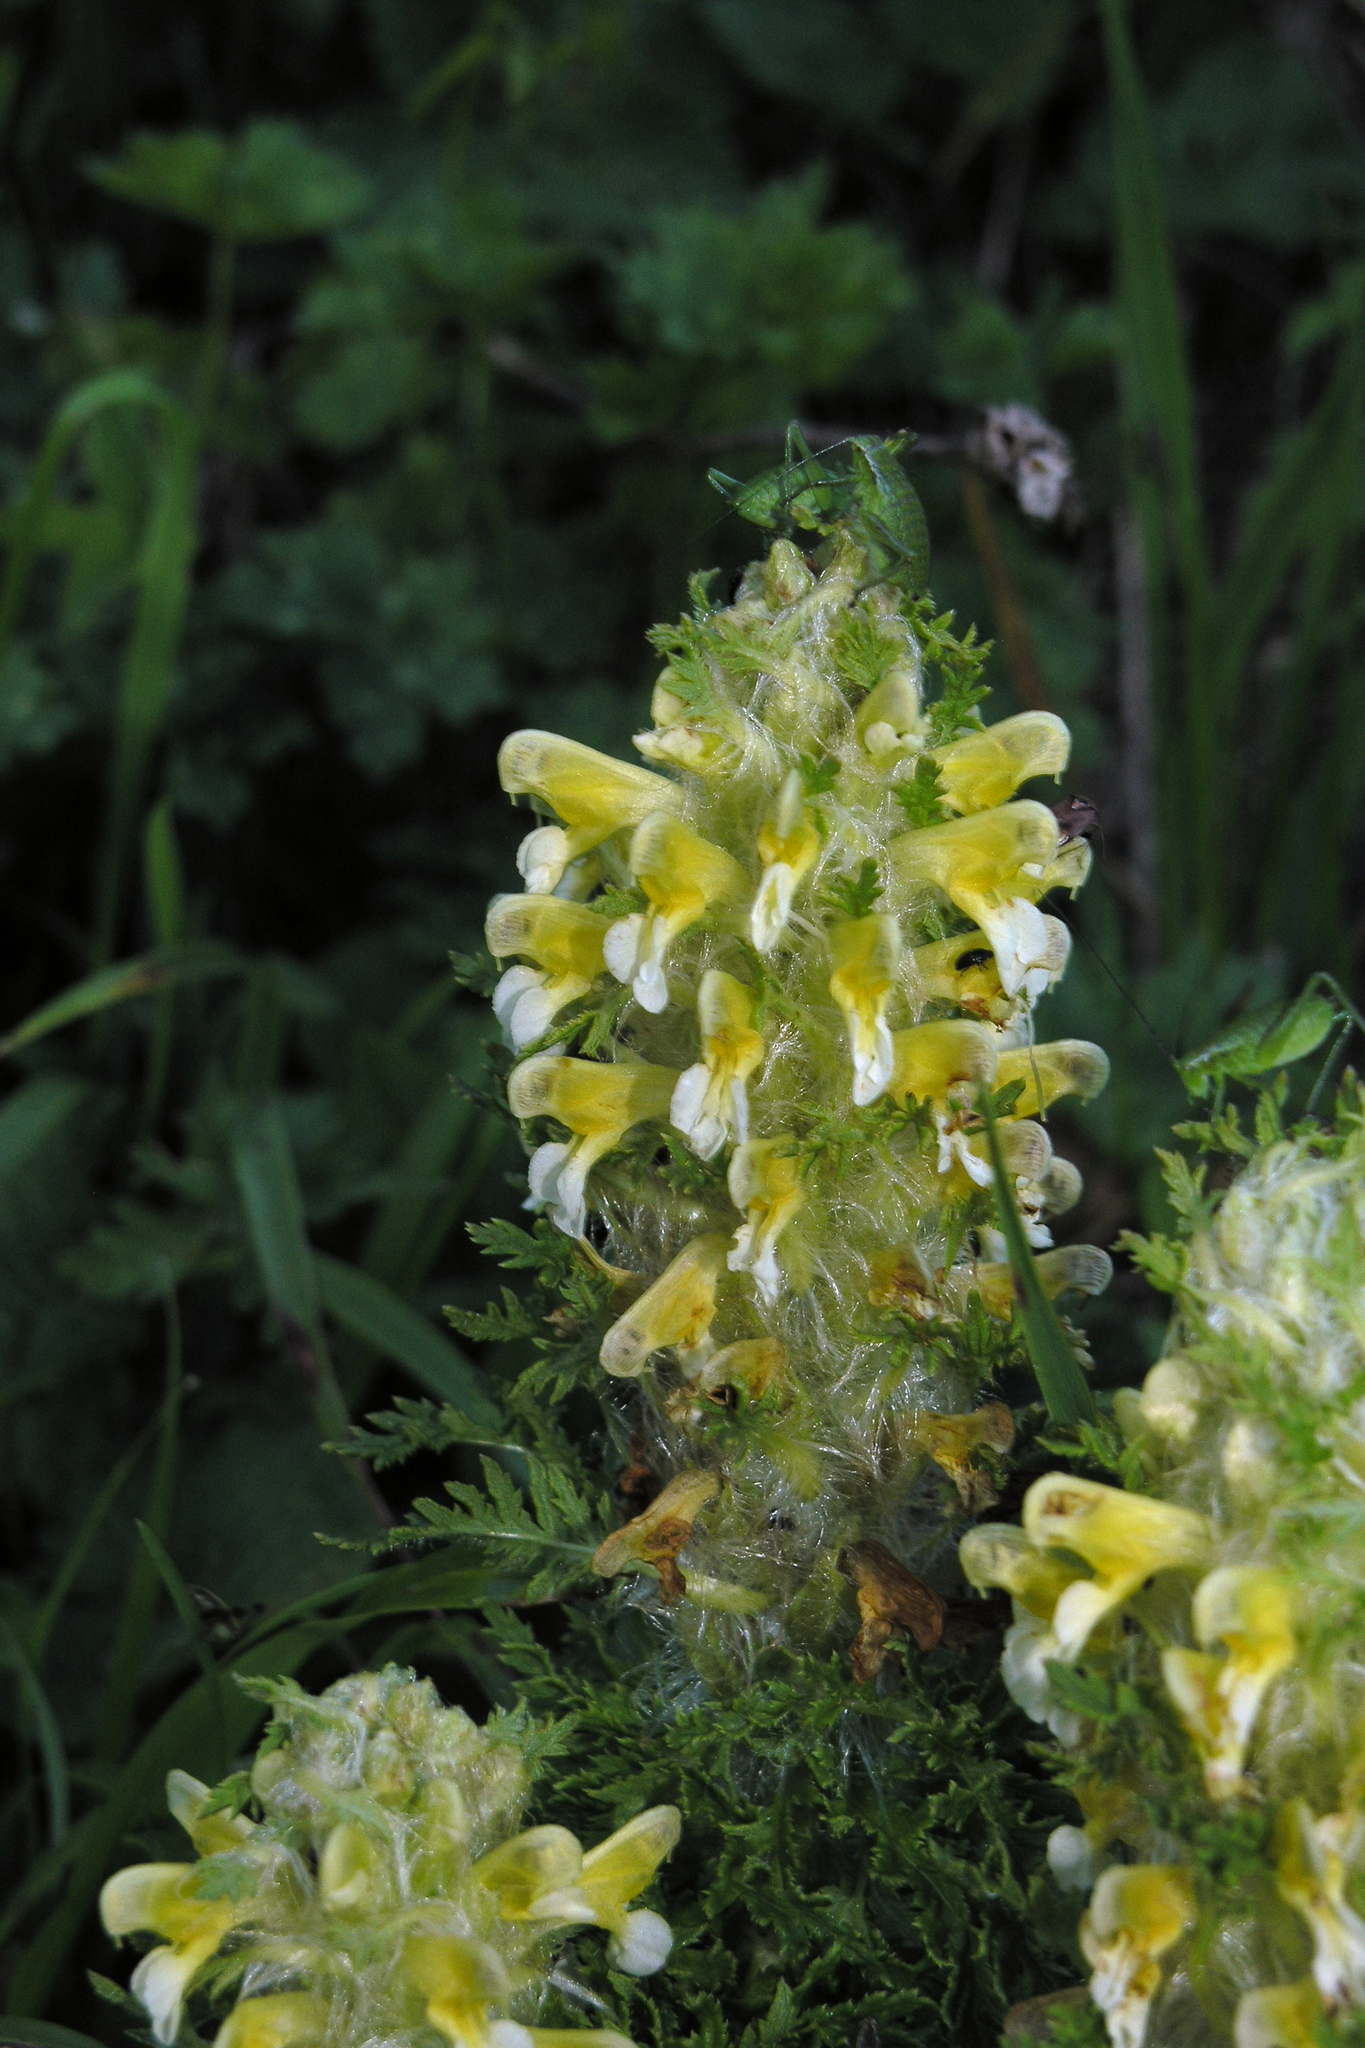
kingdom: Plantae
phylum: Tracheophyta
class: Magnoliopsida
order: Lamiales
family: Orobanchaceae
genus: Pedicularis
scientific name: Pedicularis condensata
